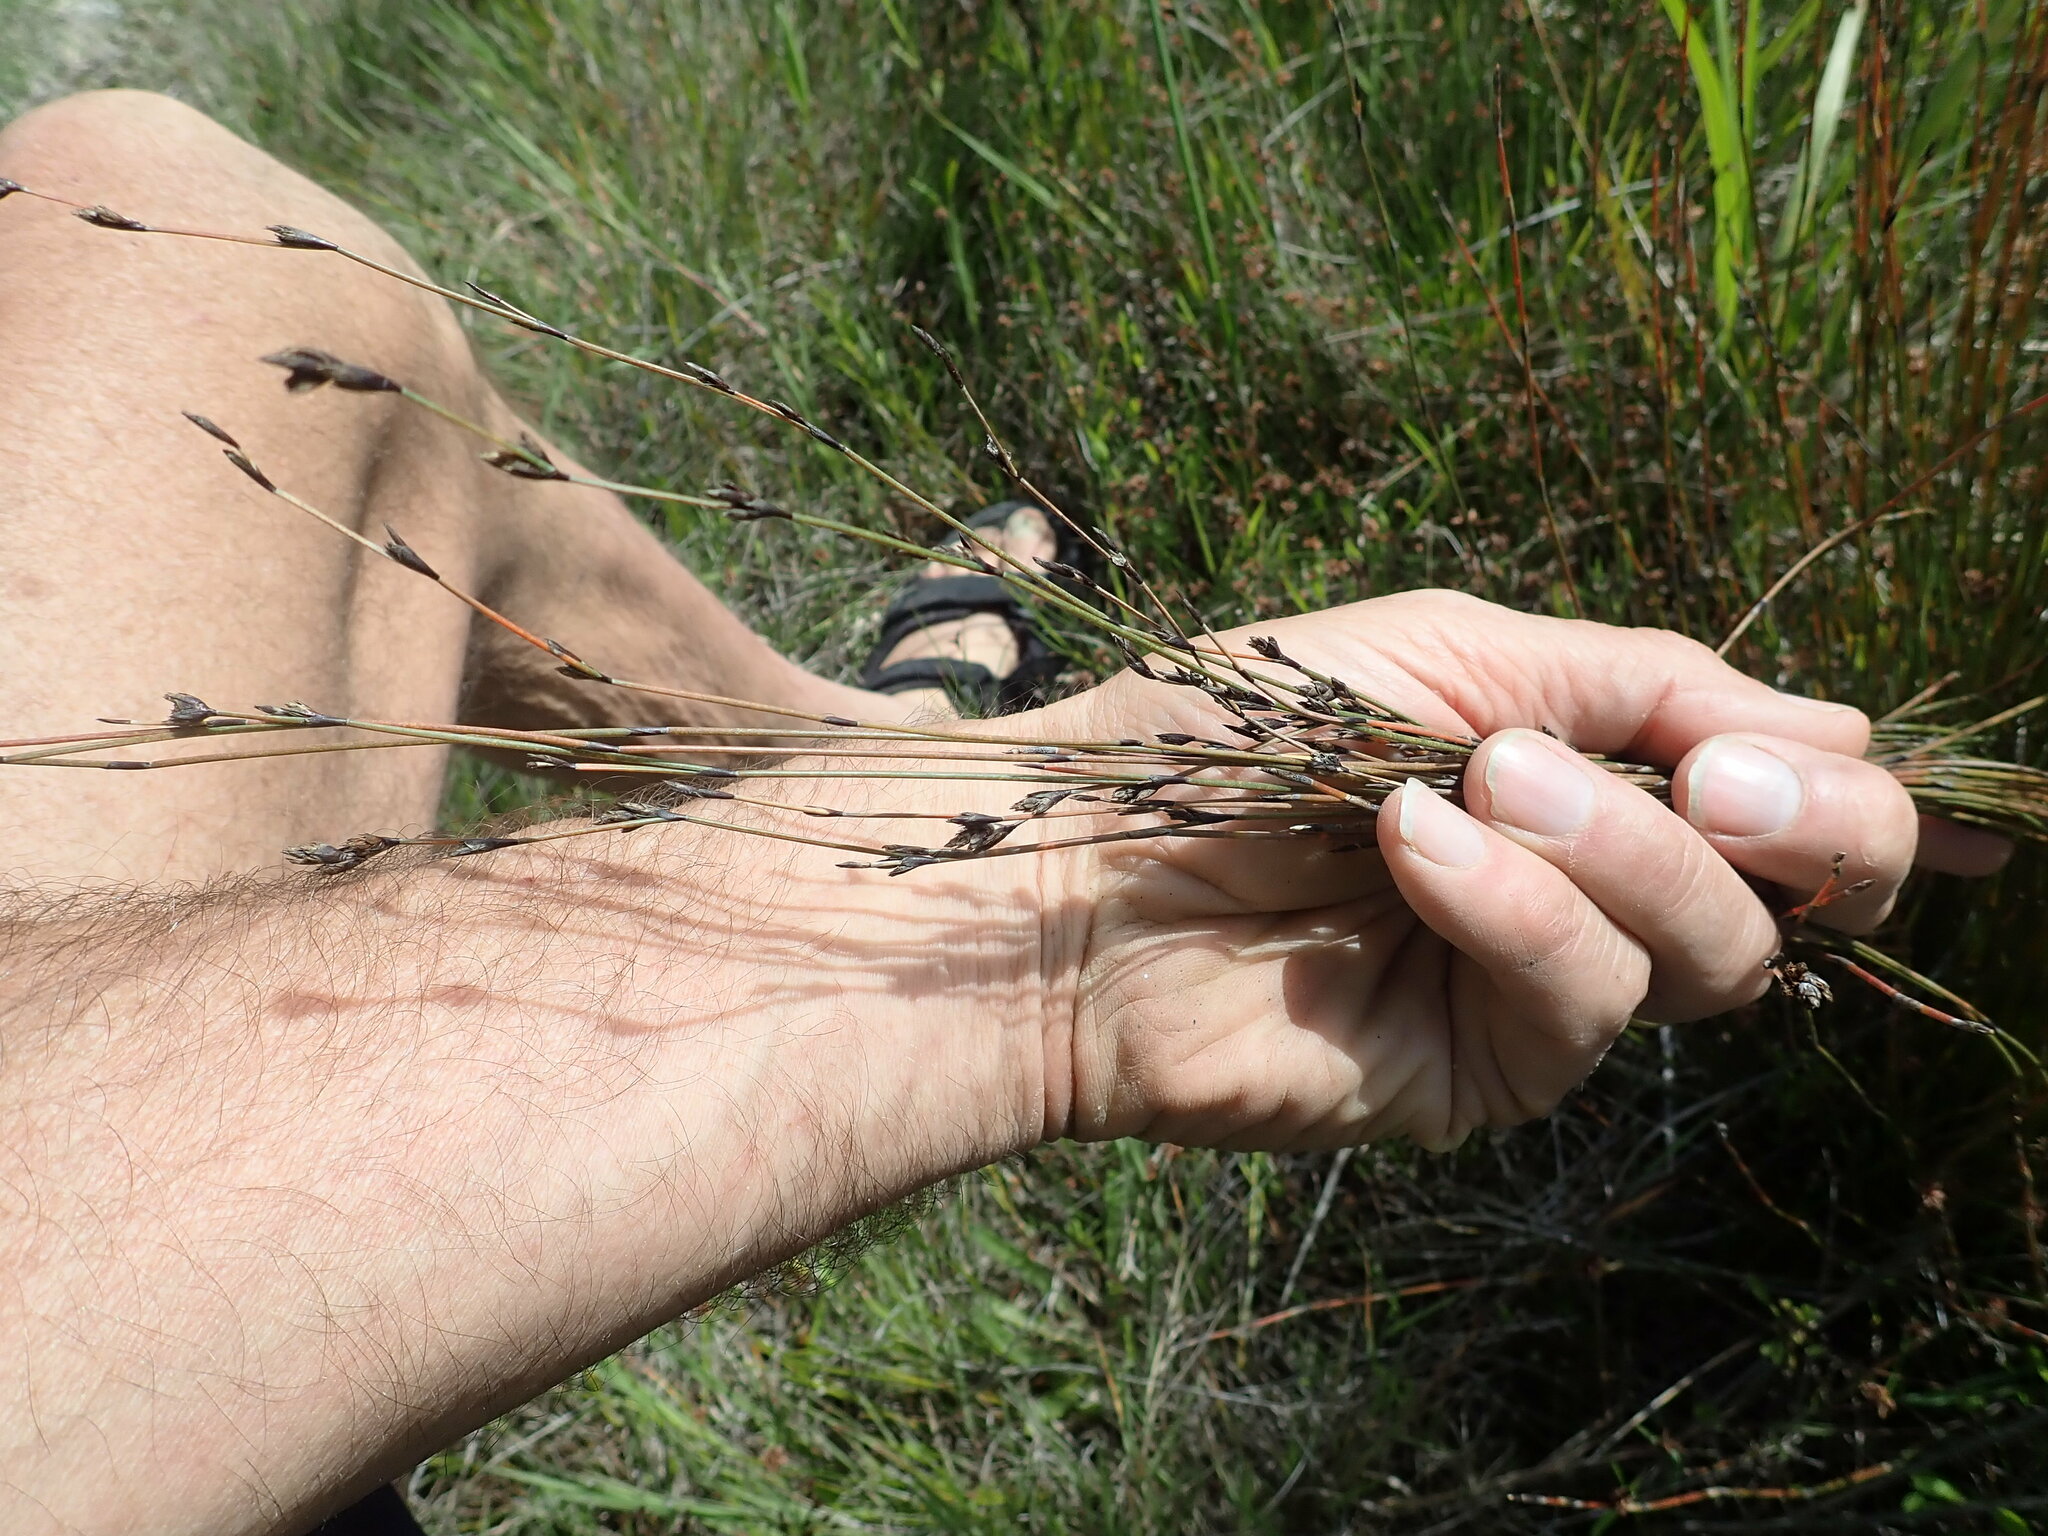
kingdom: Plantae
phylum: Tracheophyta
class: Liliopsida
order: Poales
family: Restionaceae
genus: Apodasmia
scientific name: Apodasmia similis
